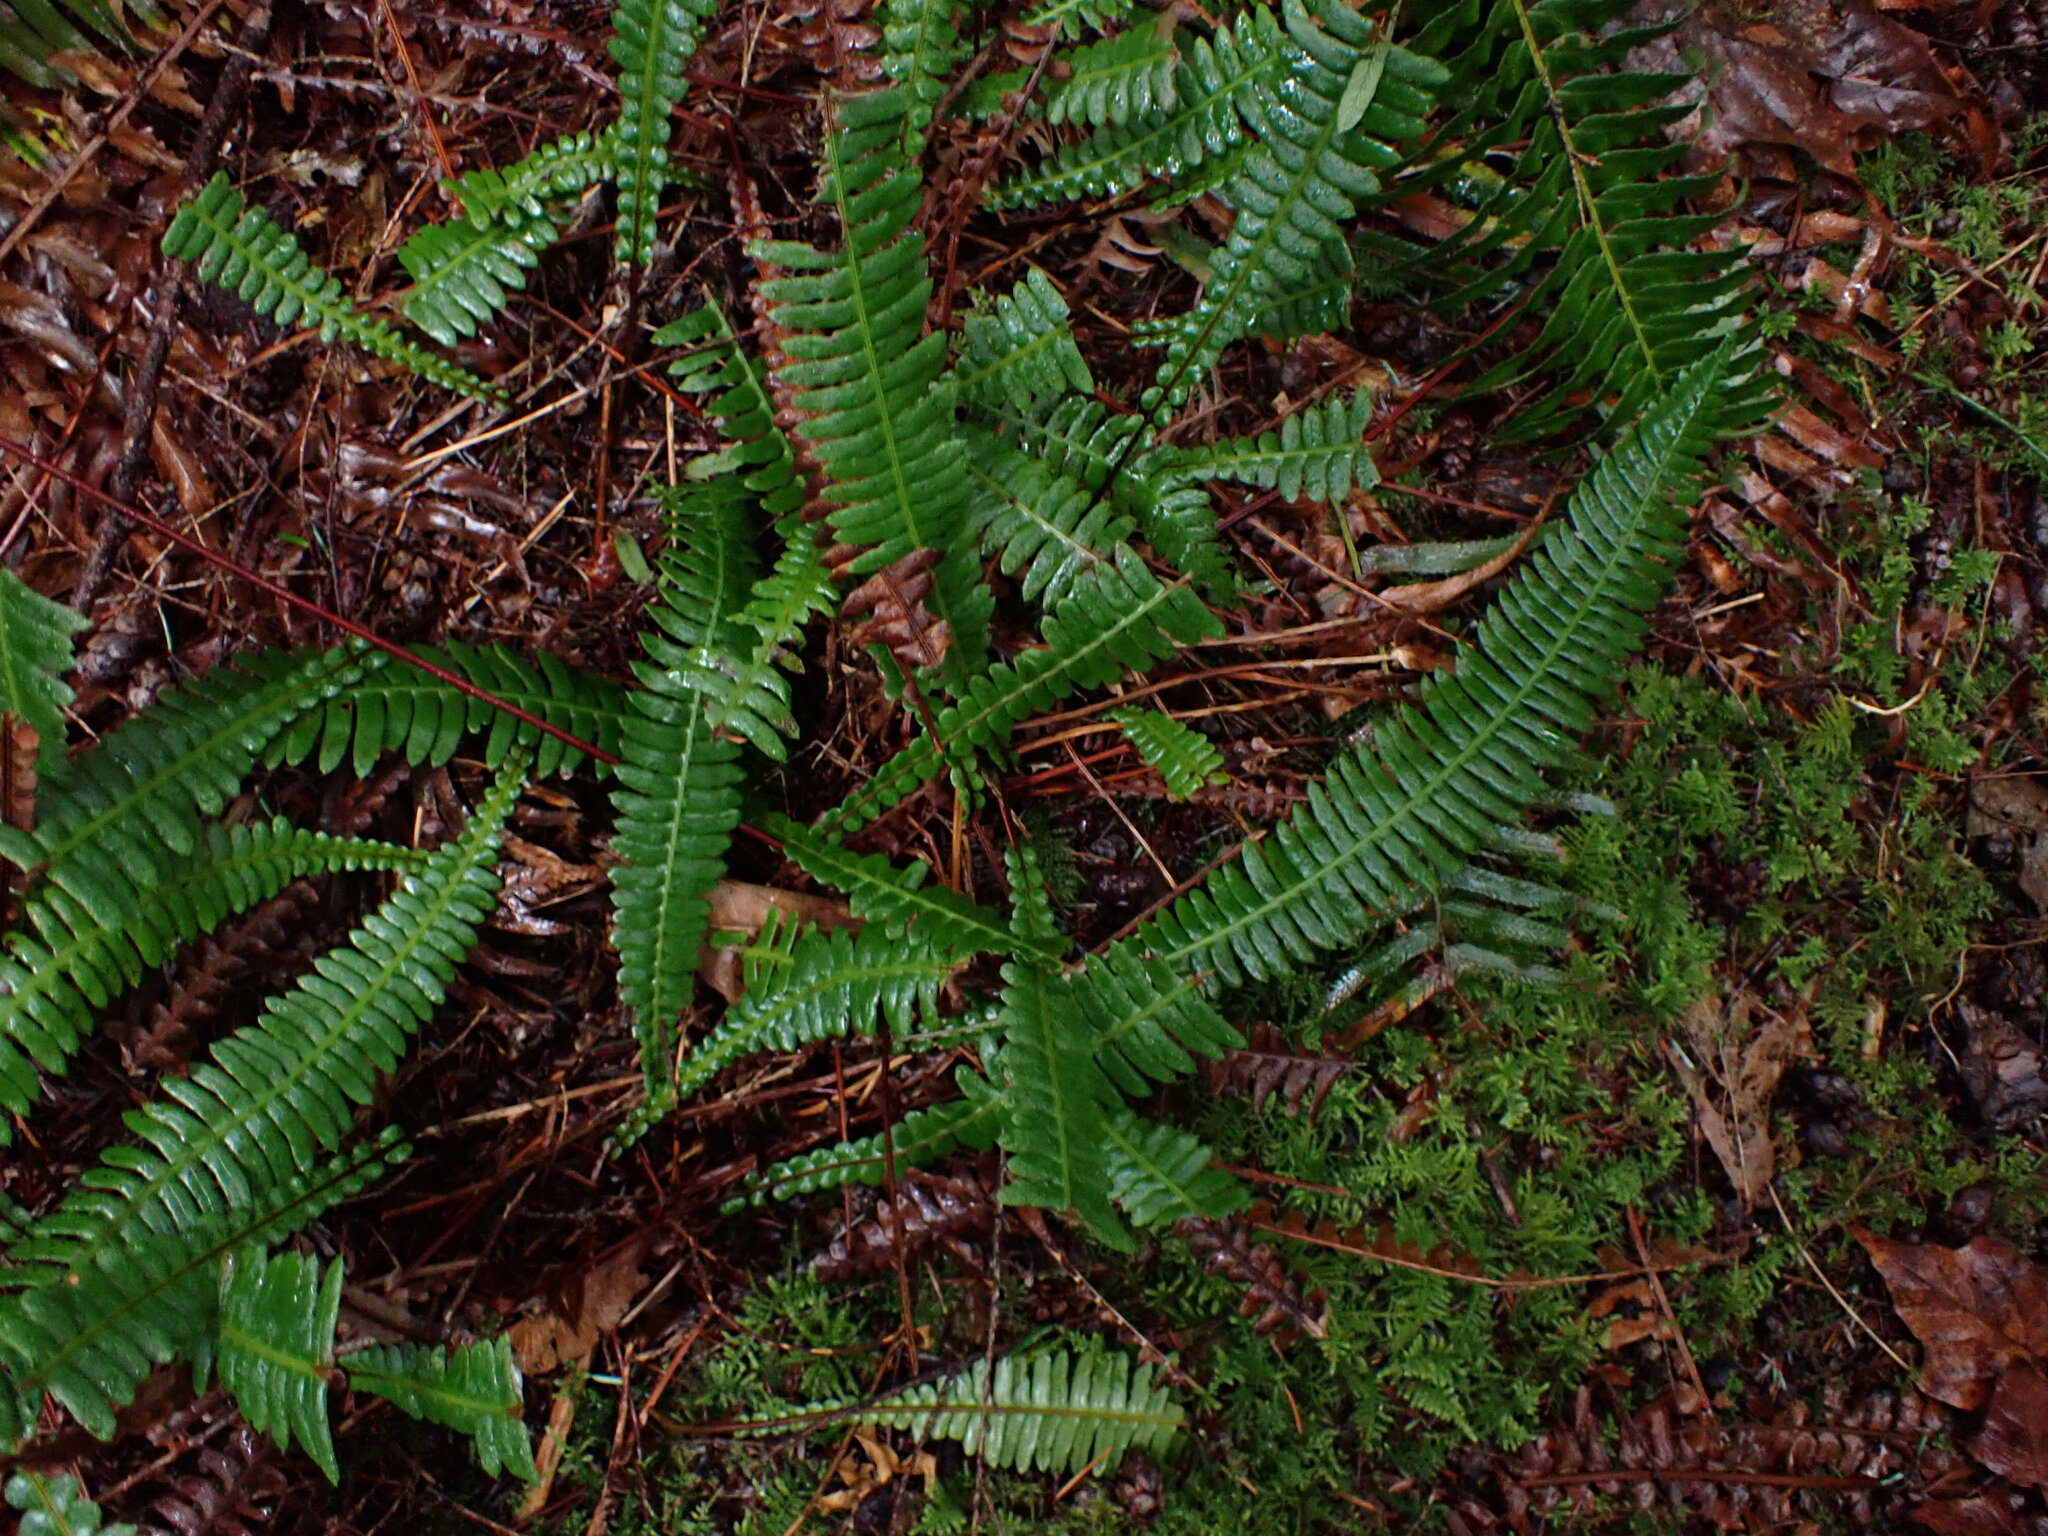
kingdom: Plantae
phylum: Tracheophyta
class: Polypodiopsida
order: Polypodiales
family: Blechnaceae
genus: Struthiopteris
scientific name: Struthiopteris spicant
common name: Deer fern
